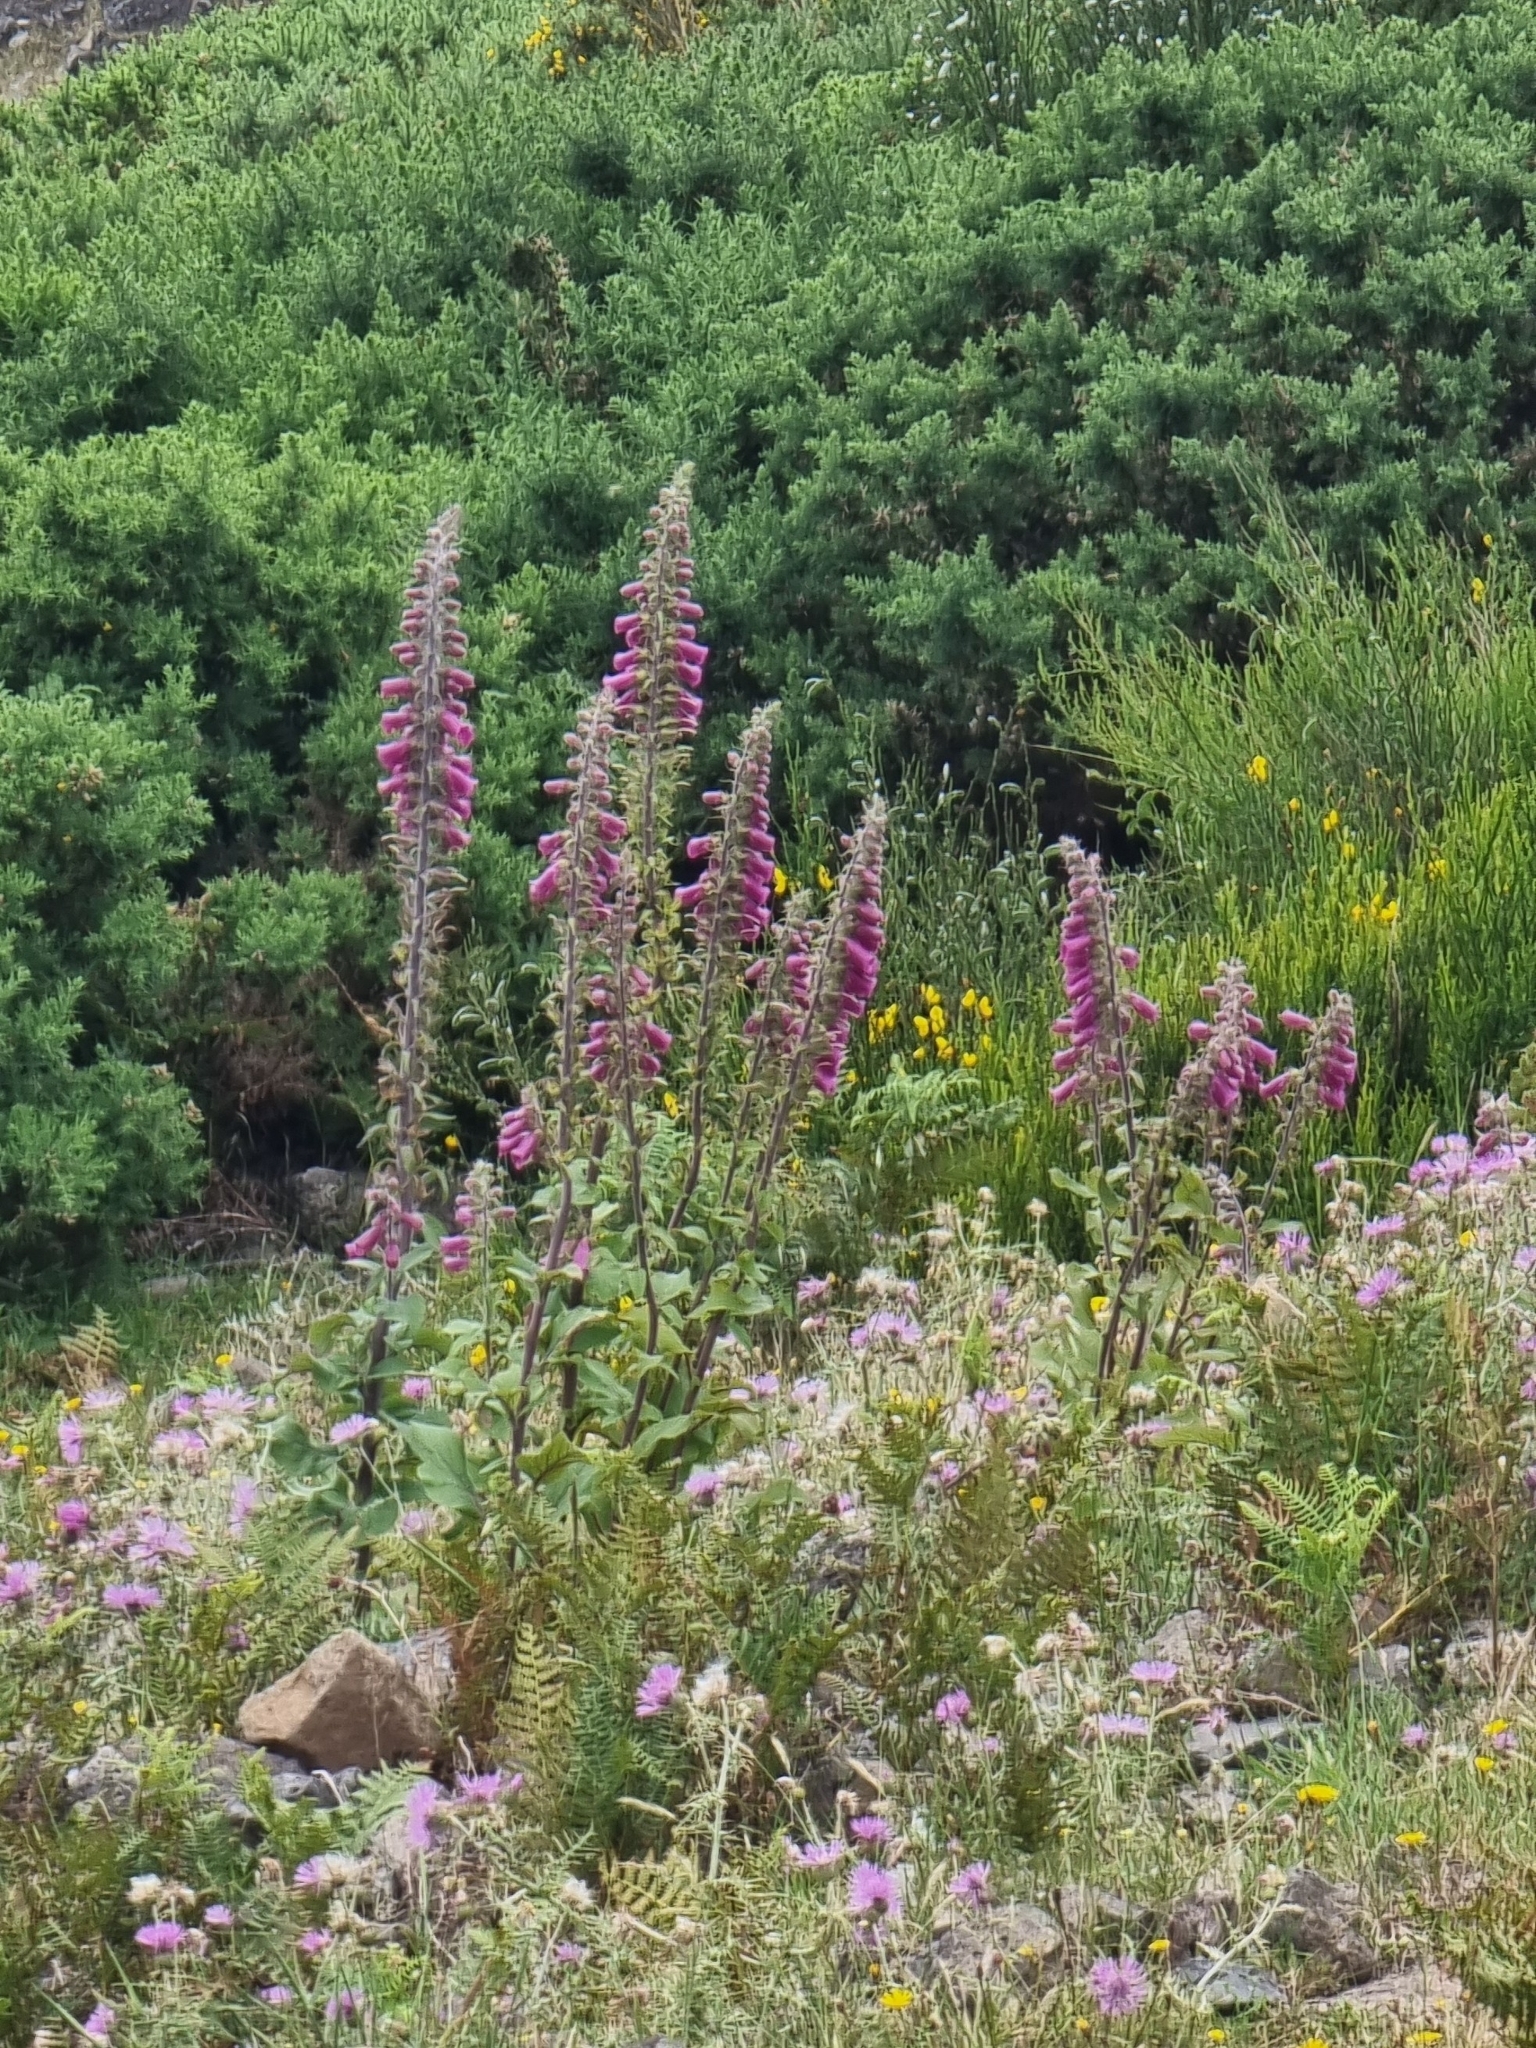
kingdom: Plantae
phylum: Tracheophyta
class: Magnoliopsida
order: Lamiales
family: Plantaginaceae
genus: Digitalis
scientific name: Digitalis purpurea
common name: Foxglove
